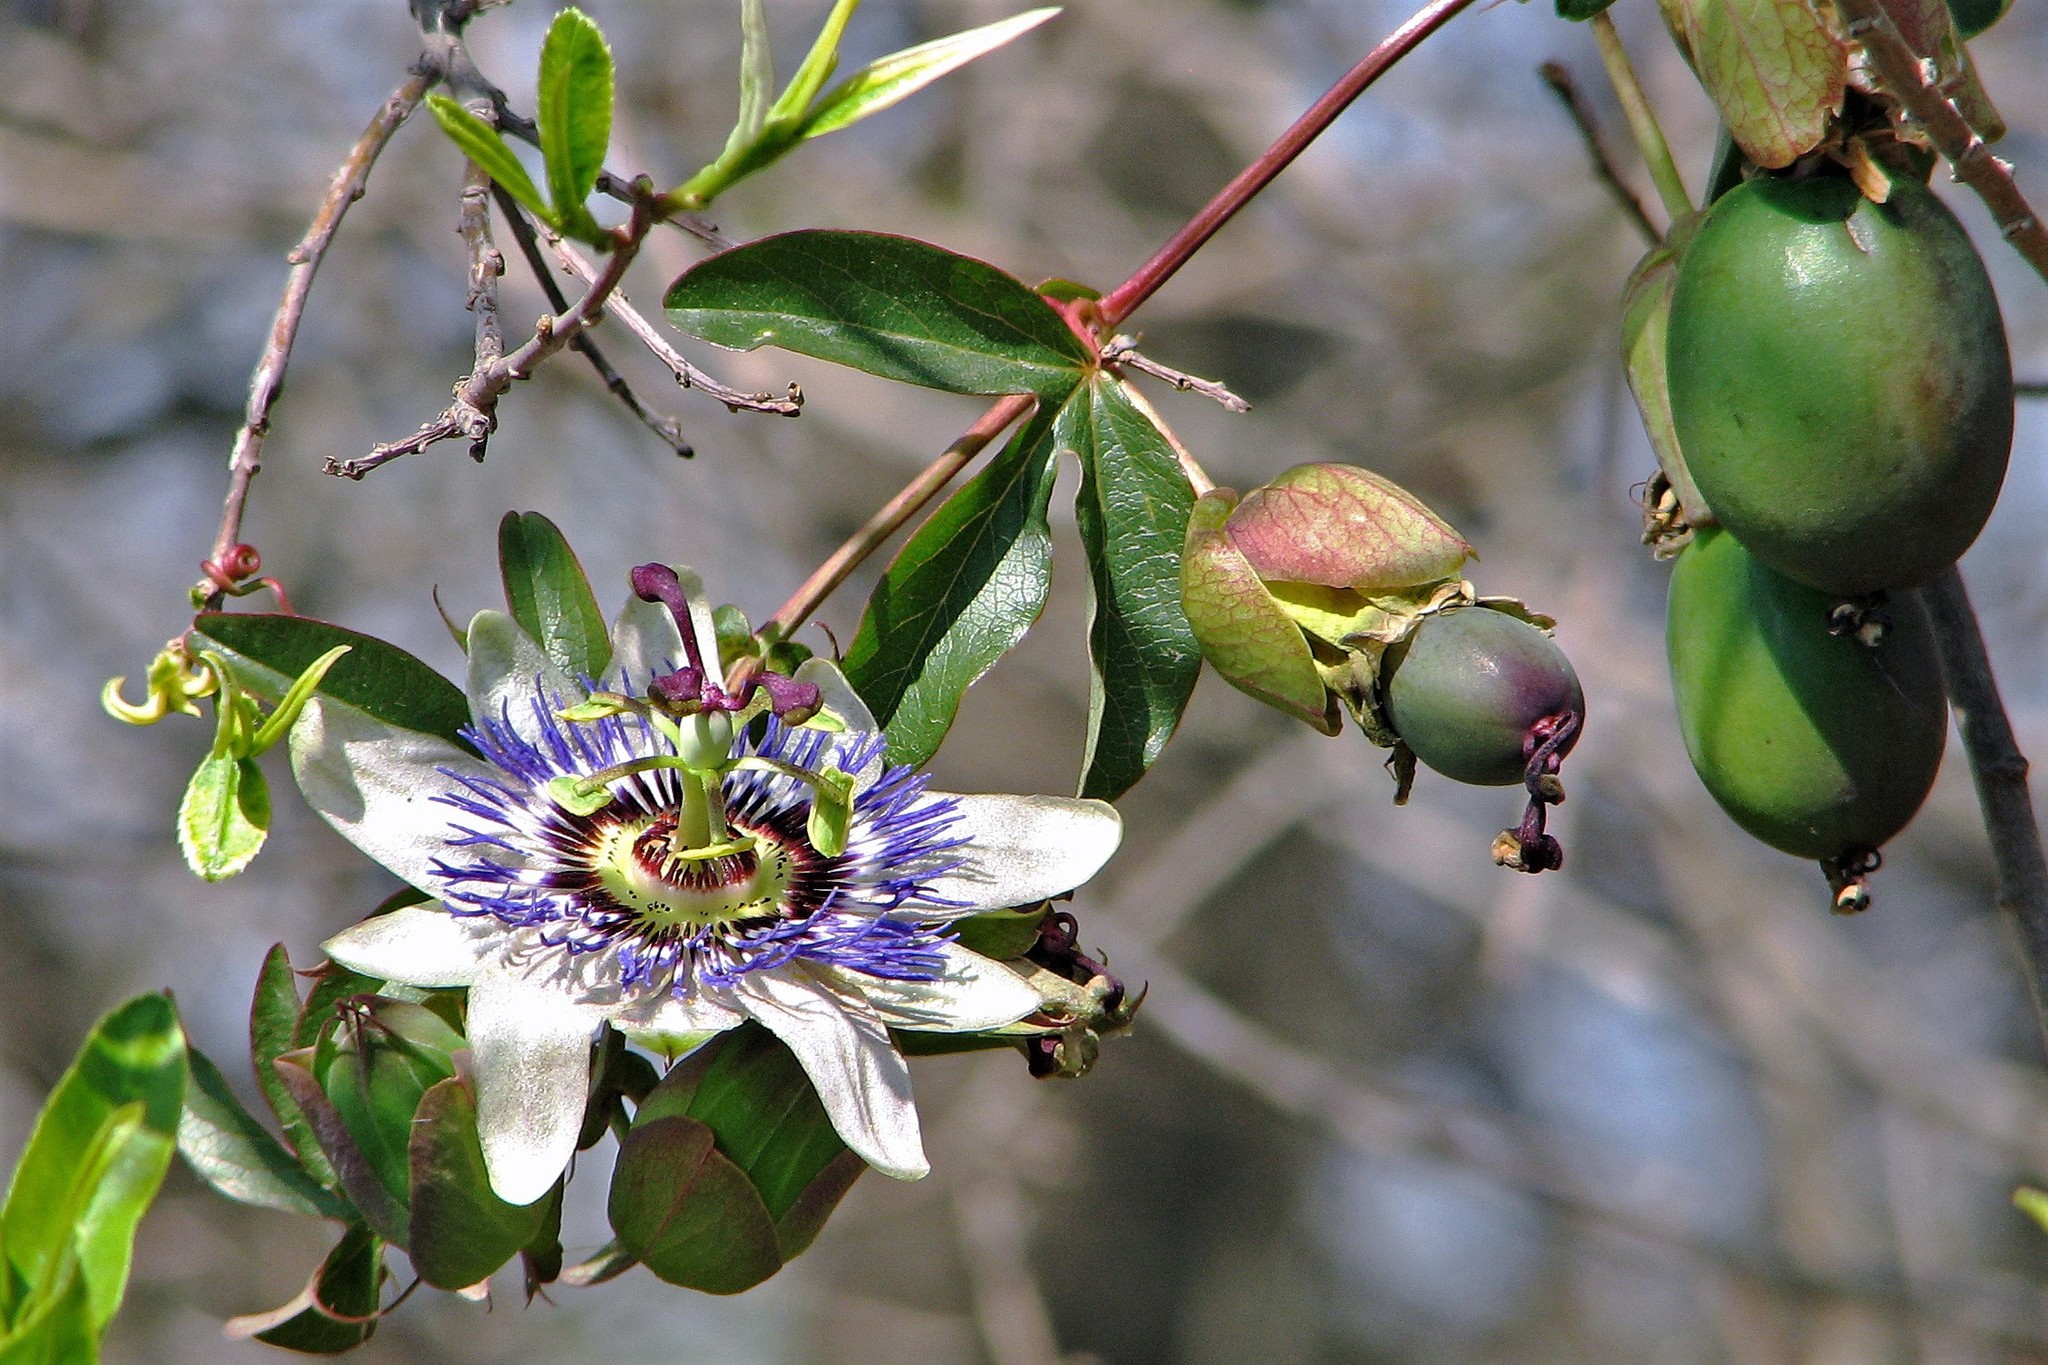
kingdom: Plantae
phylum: Tracheophyta
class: Magnoliopsida
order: Malpighiales
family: Passifloraceae
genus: Passiflora
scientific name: Passiflora caerulea
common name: Blue passionflower
